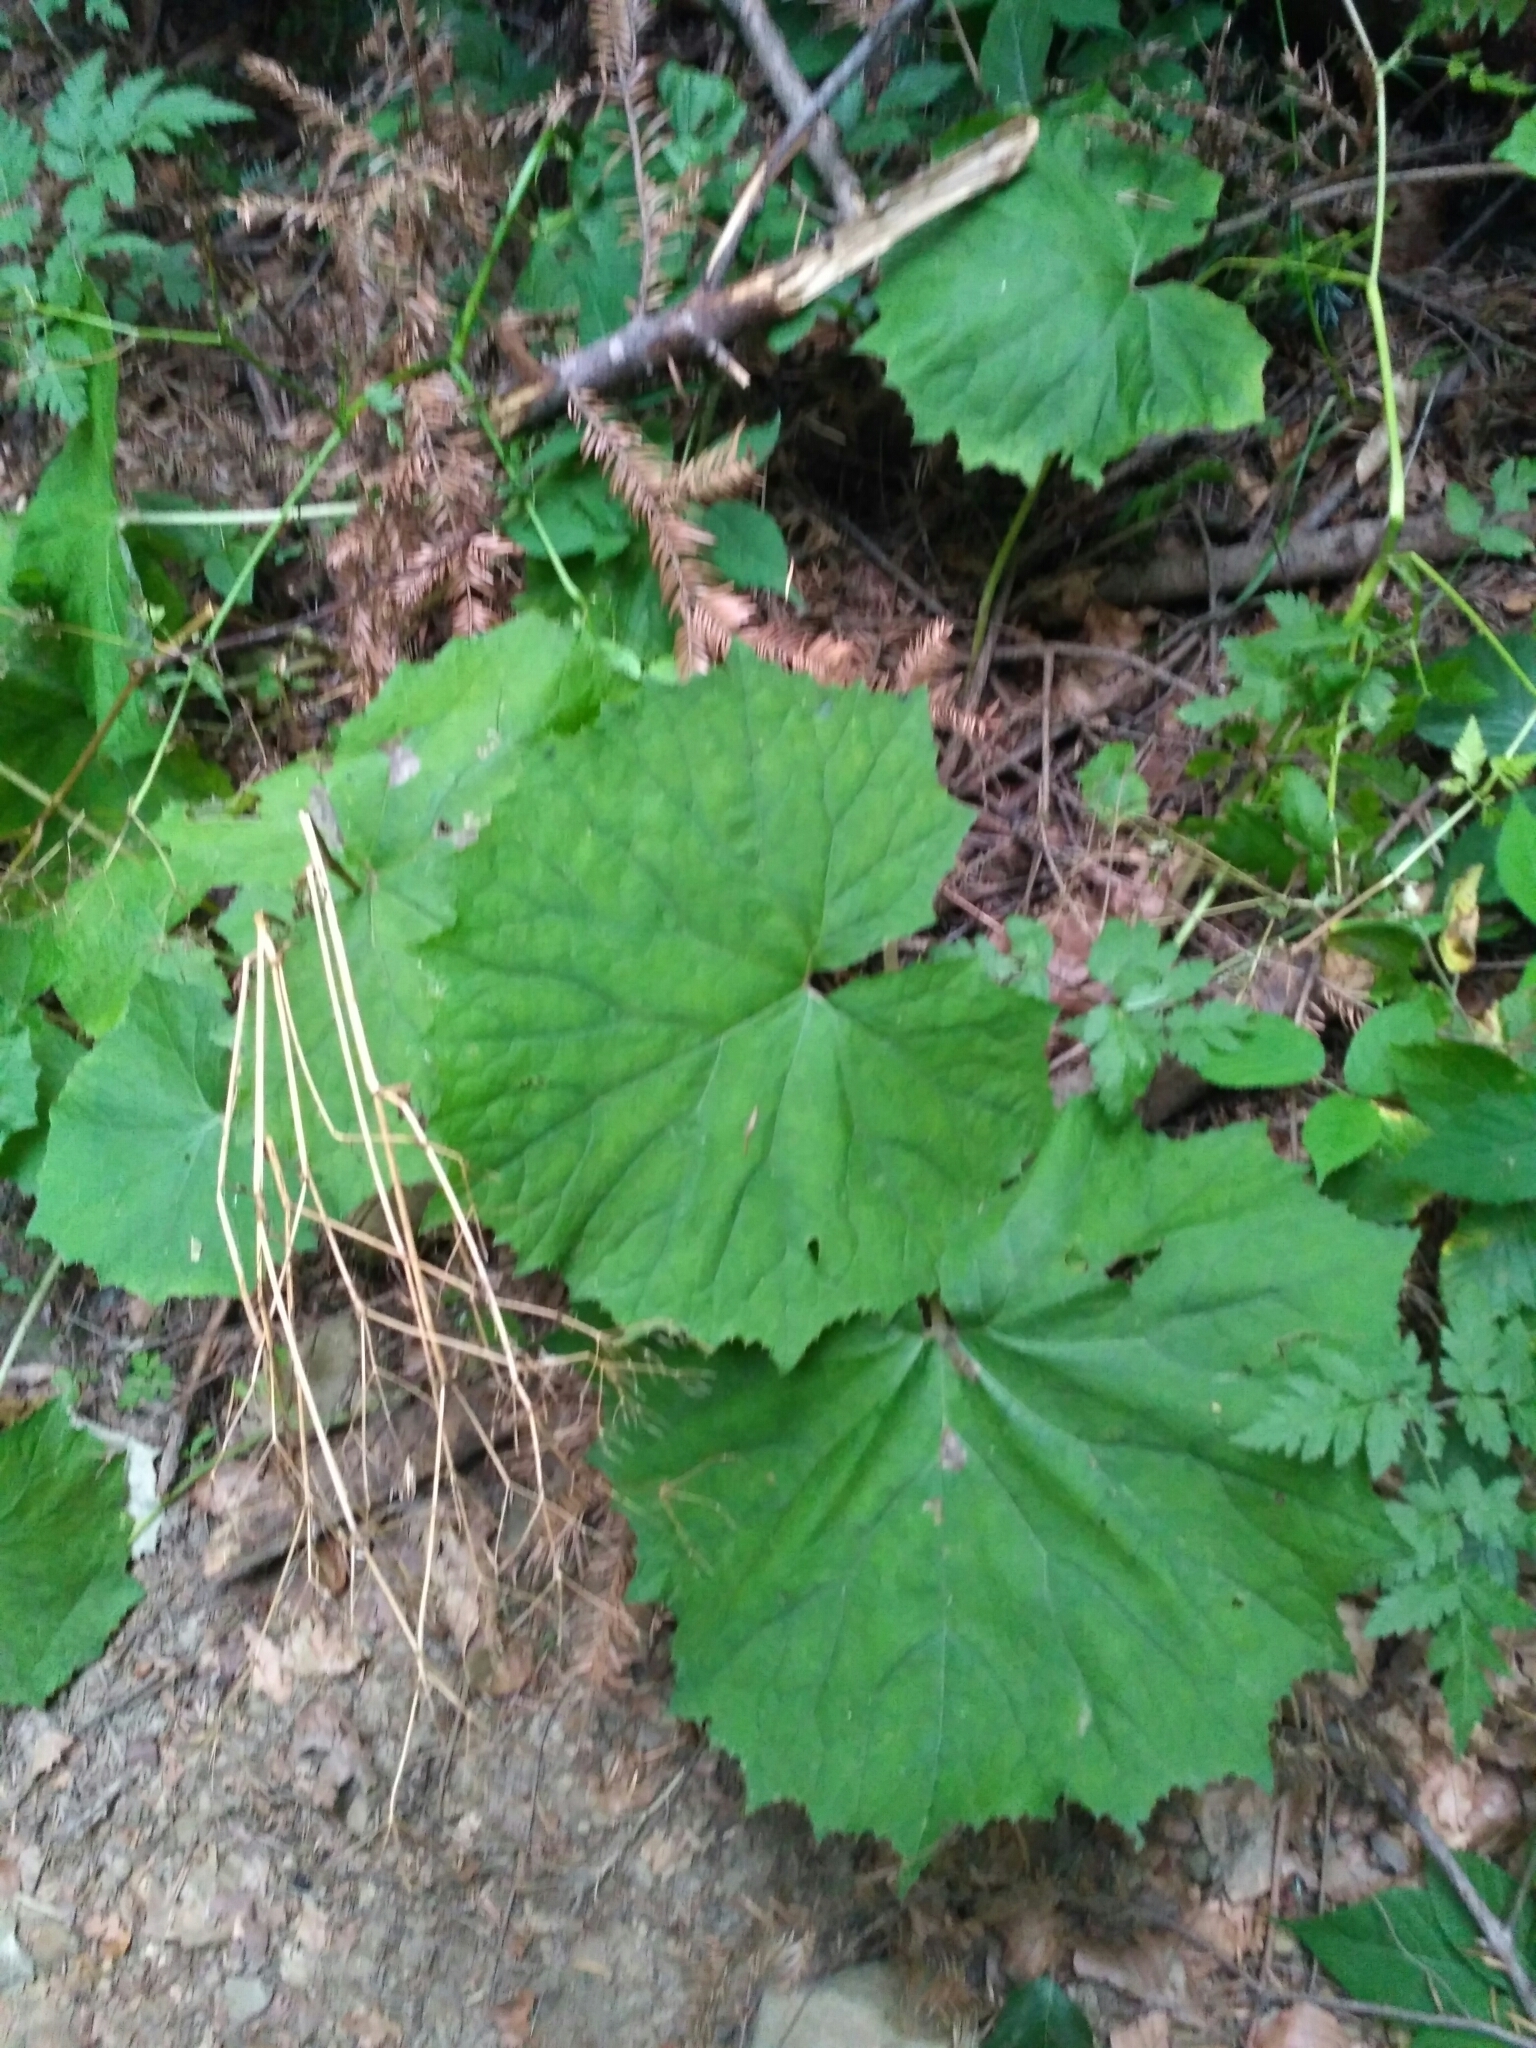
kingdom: Plantae
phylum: Tracheophyta
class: Magnoliopsida
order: Asterales
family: Asteraceae
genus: Adenostyles
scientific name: Adenostyles alliariae
